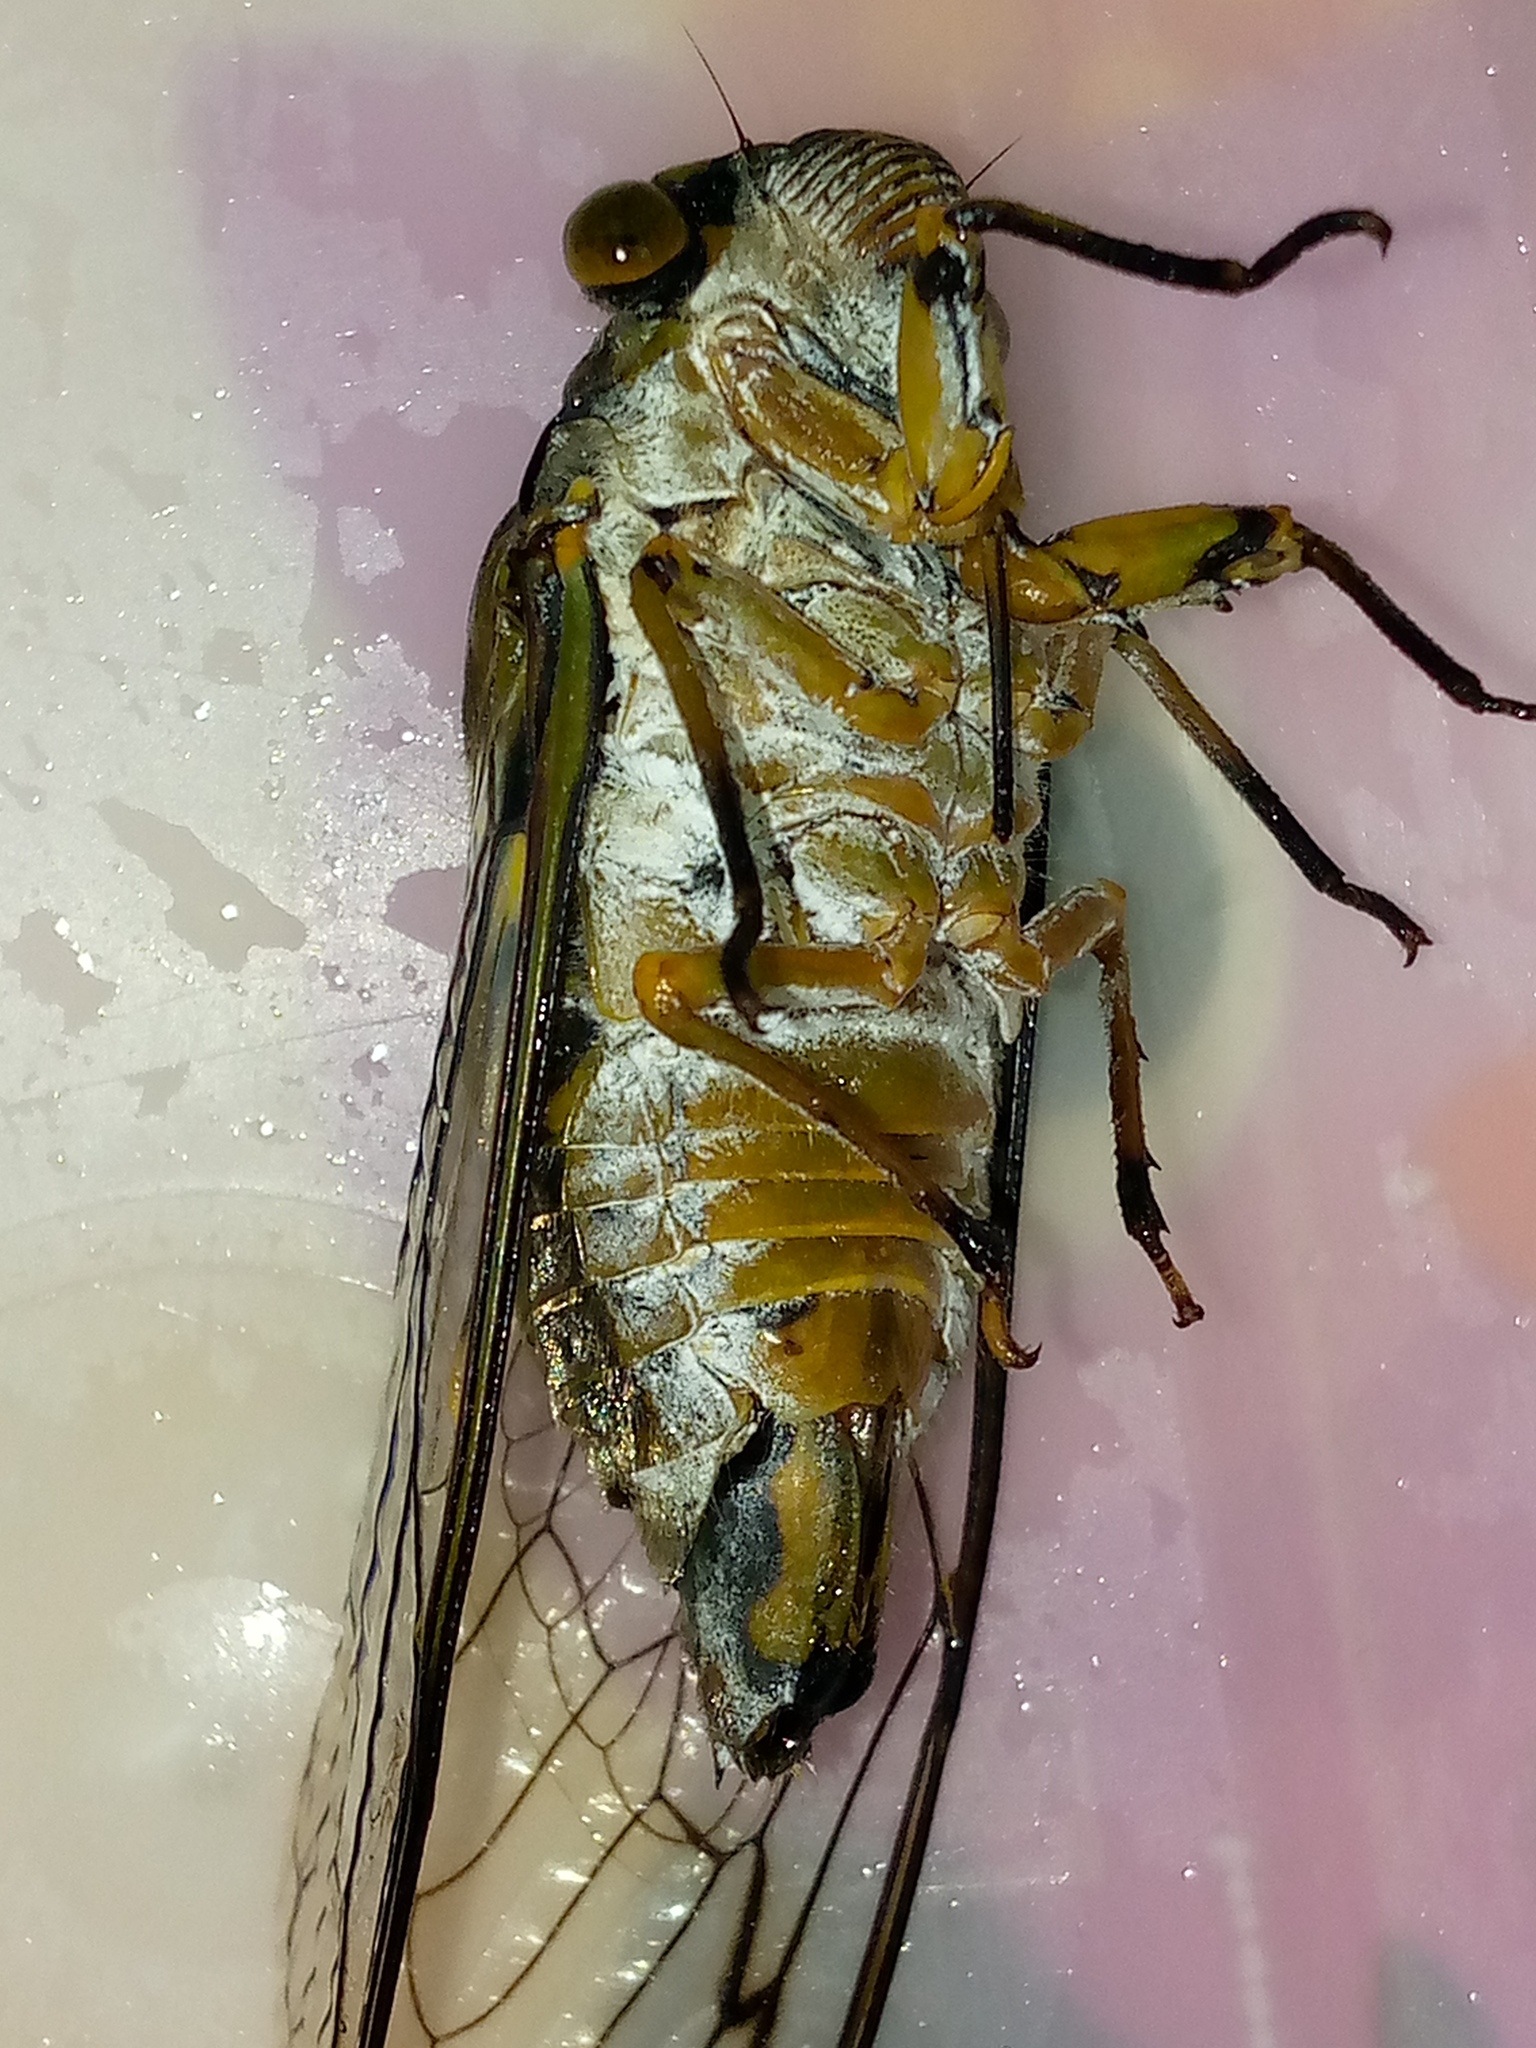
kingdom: Animalia
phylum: Arthropoda
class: Insecta
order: Hemiptera
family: Cicadidae
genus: Quesada
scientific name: Quesada gigas
